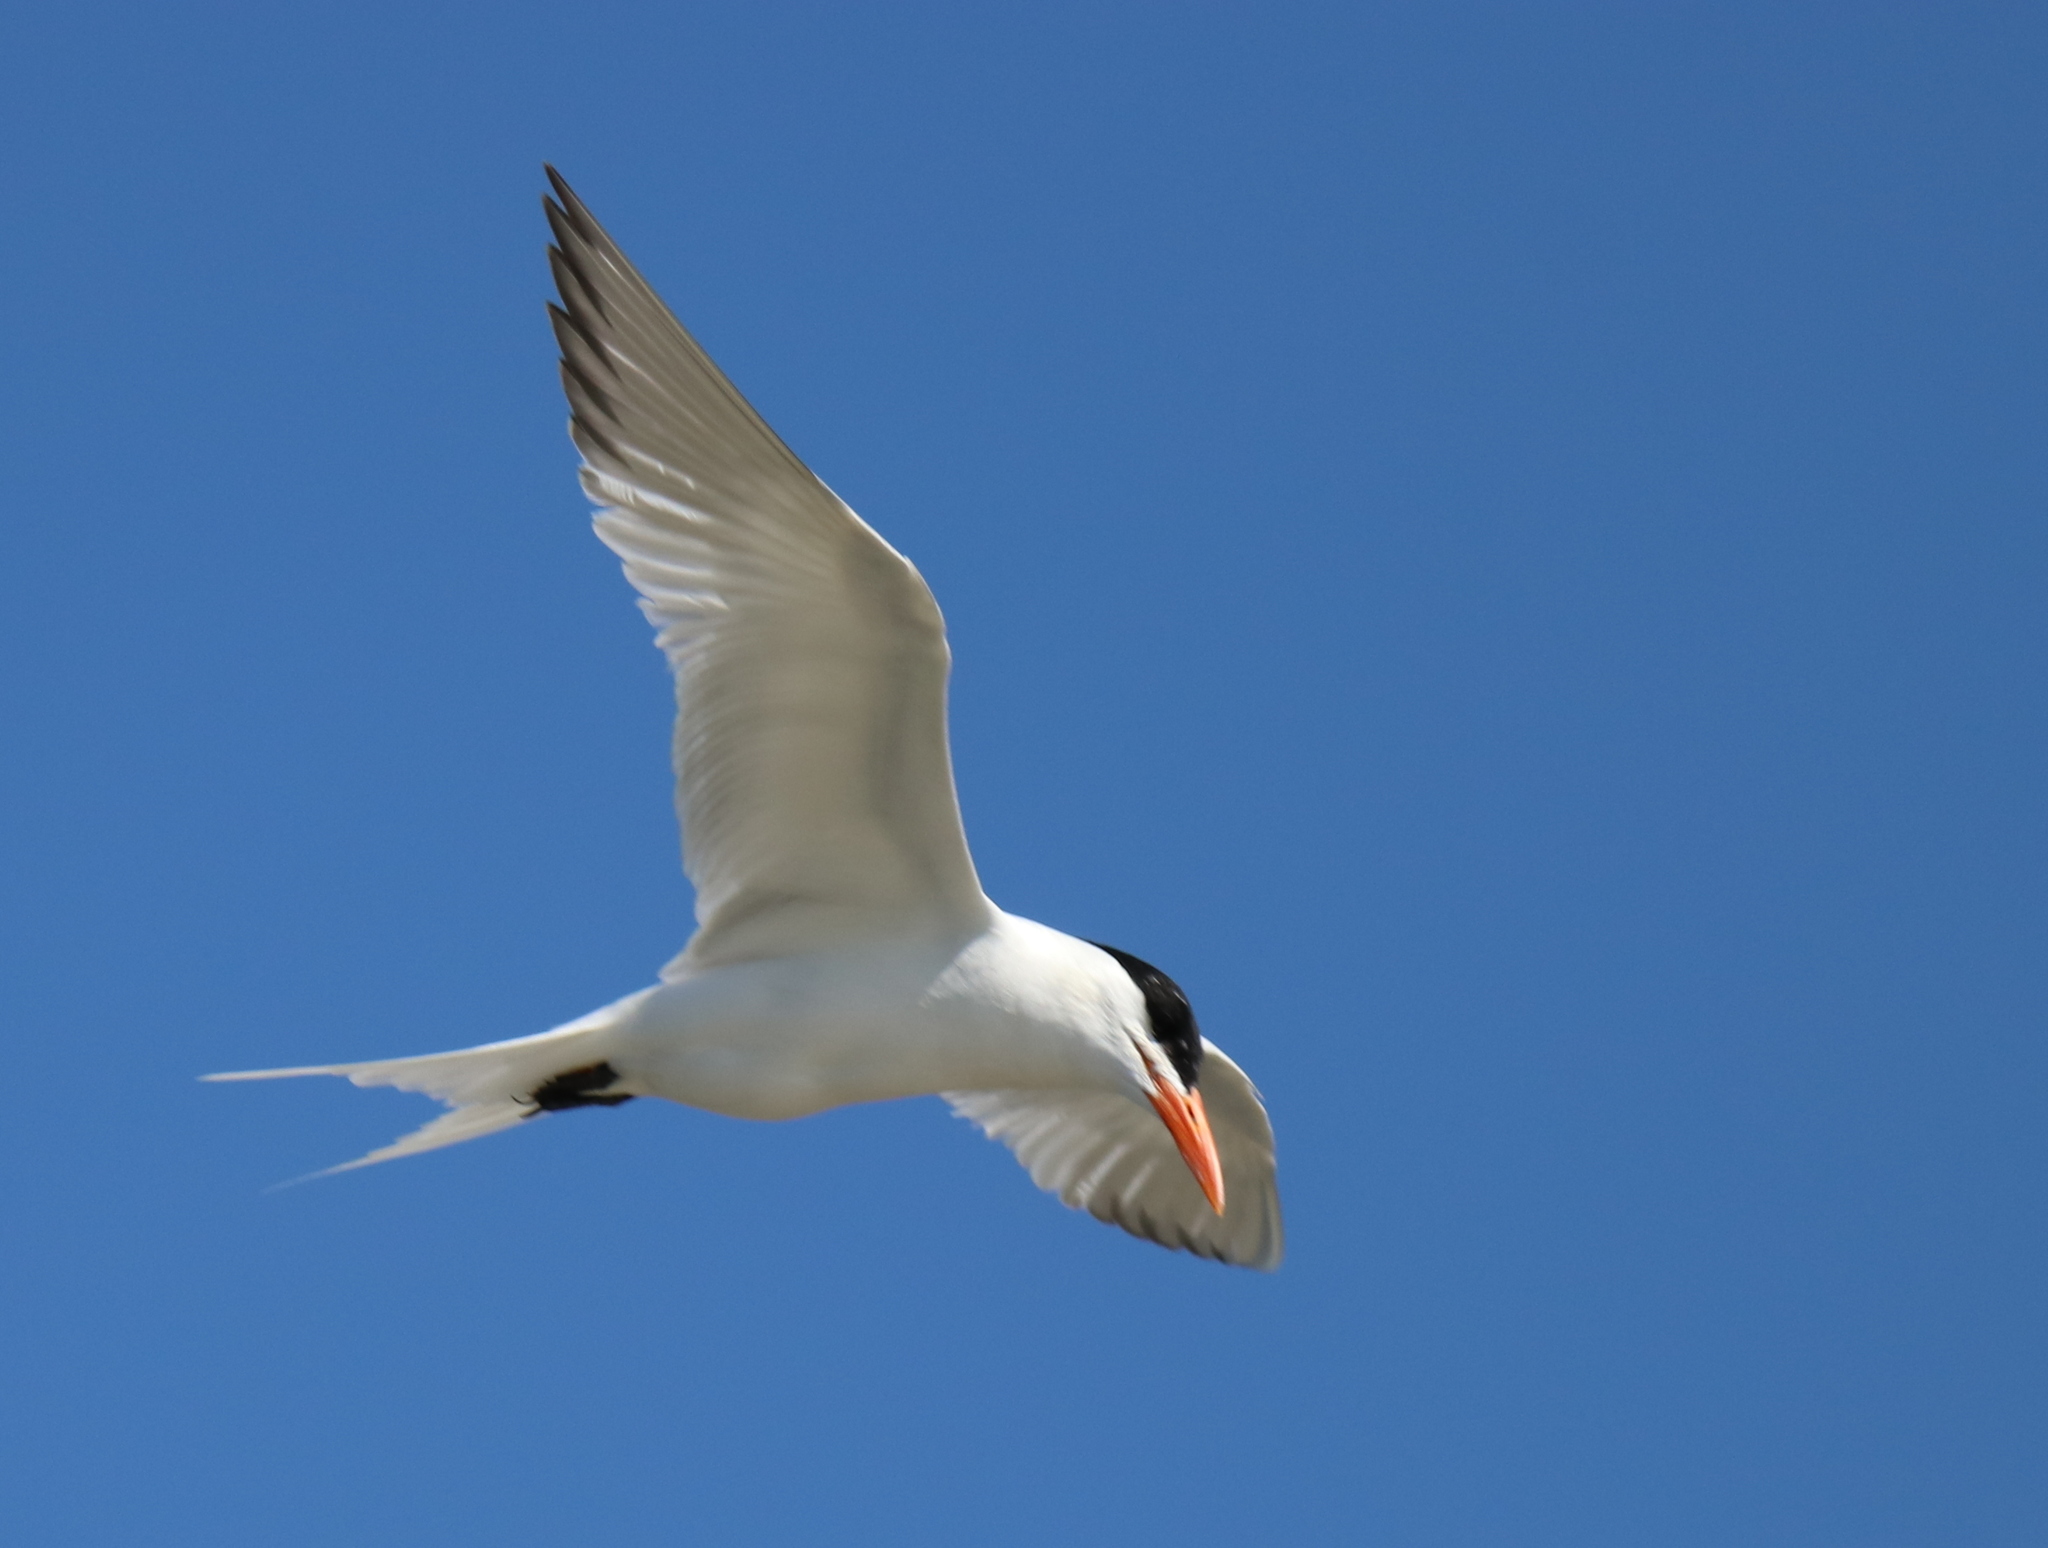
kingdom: Animalia
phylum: Chordata
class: Aves
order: Charadriiformes
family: Laridae
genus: Thalasseus
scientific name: Thalasseus maximus
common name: Royal tern
